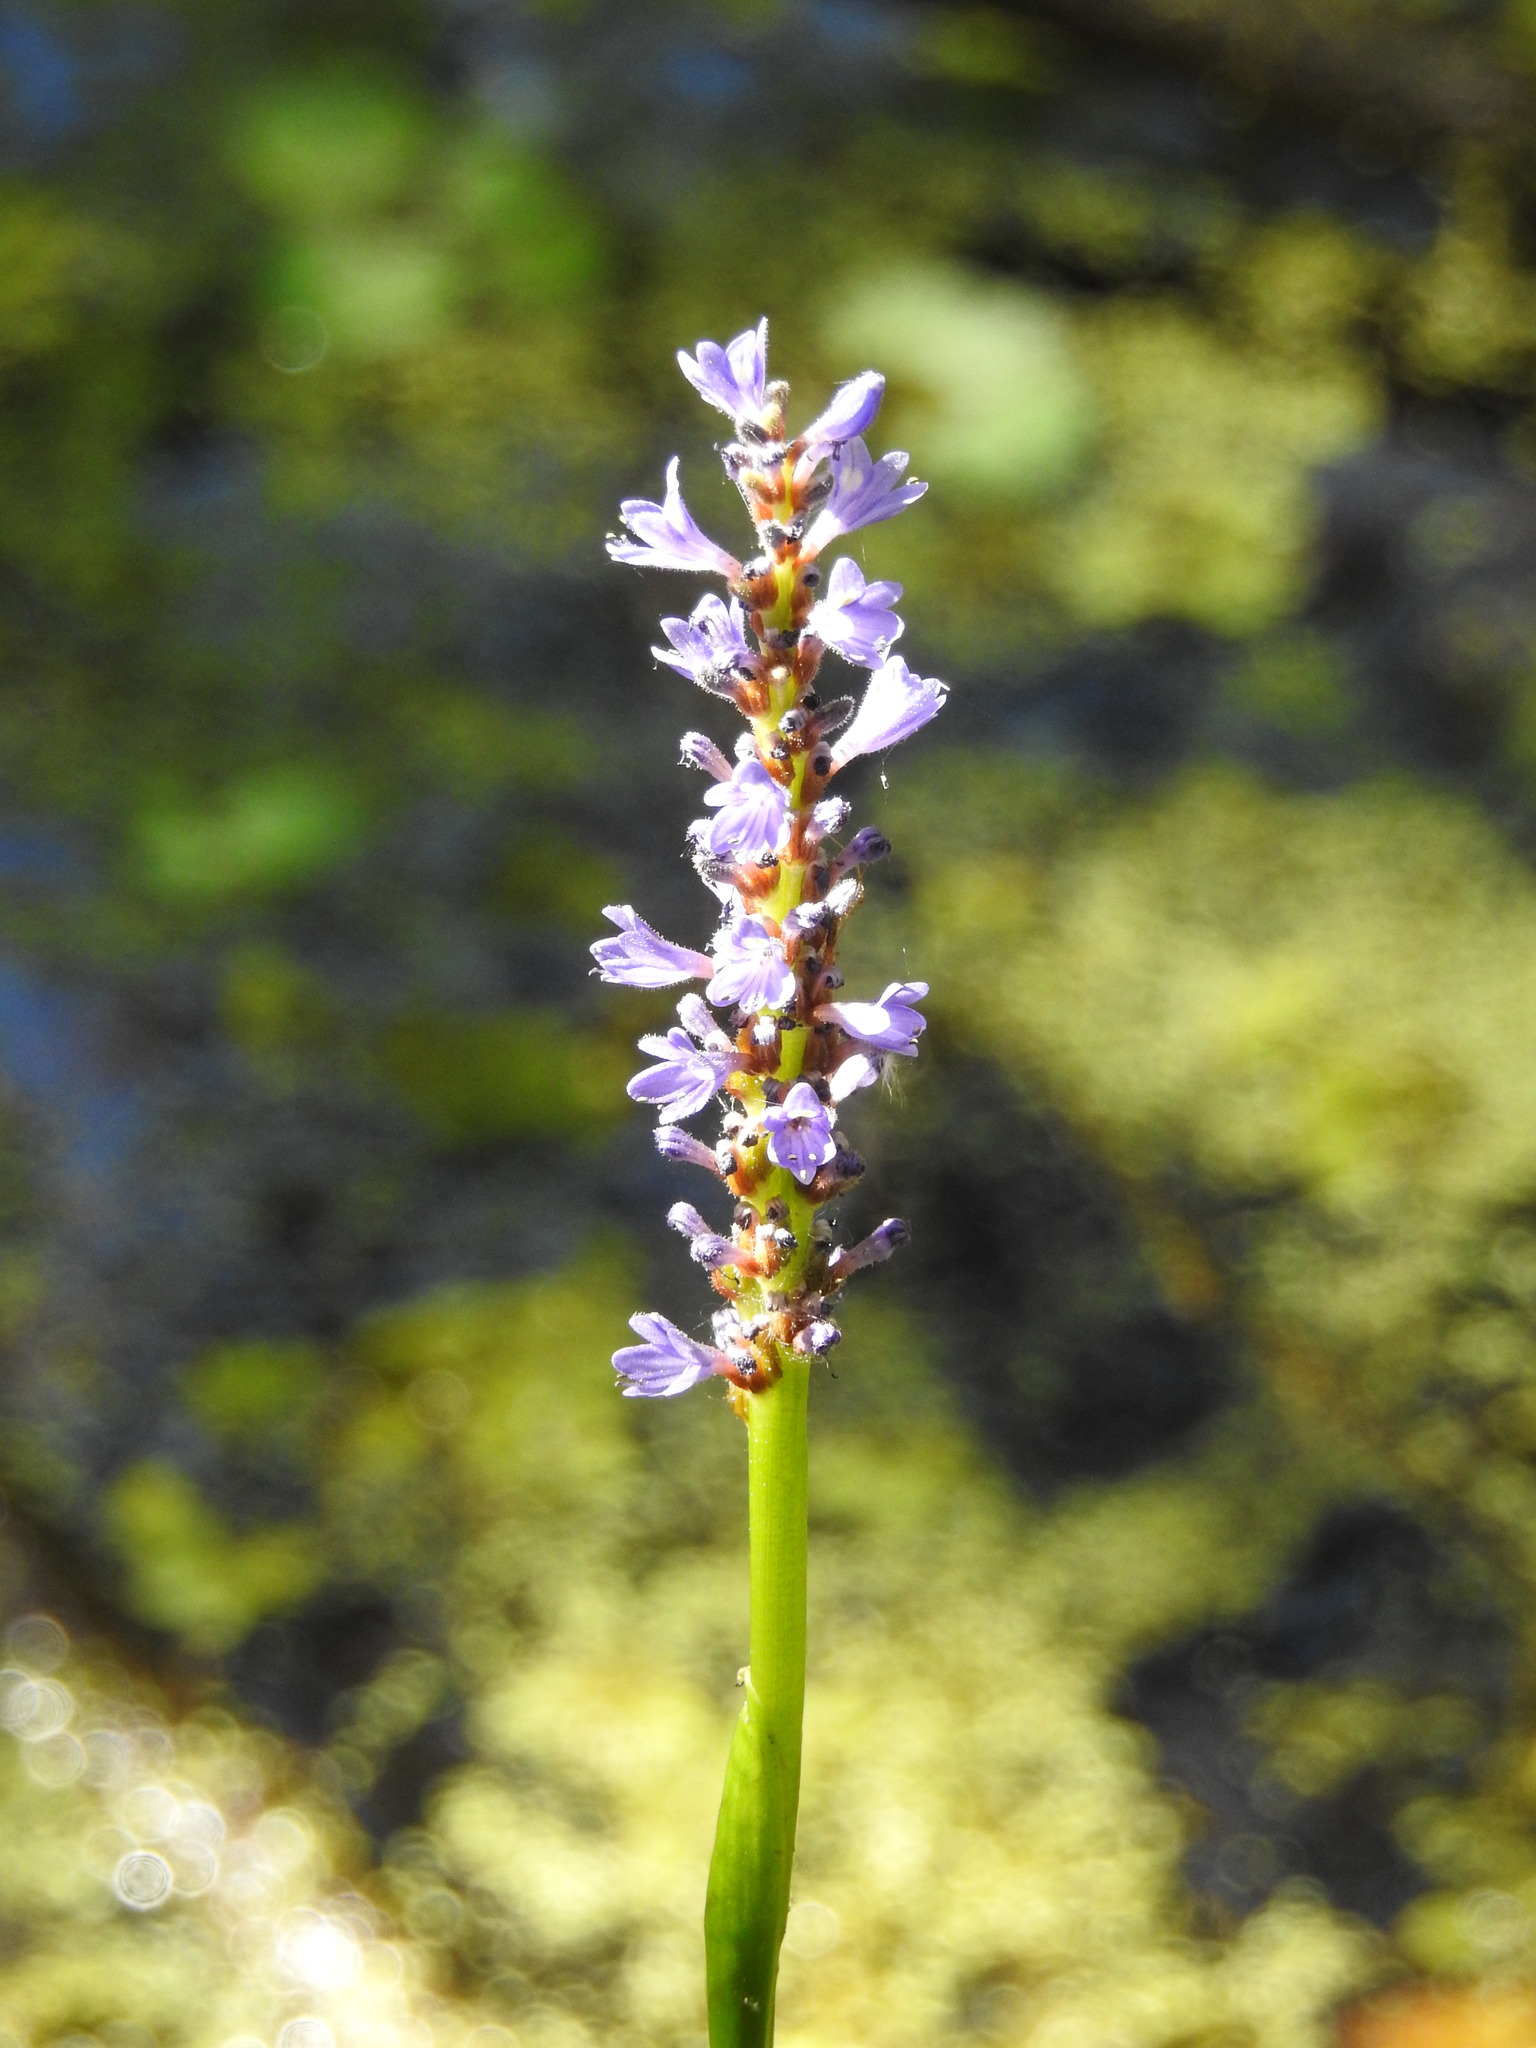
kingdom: Plantae
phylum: Tracheophyta
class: Liliopsida
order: Commelinales
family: Pontederiaceae
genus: Pontederia
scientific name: Pontederia cordata
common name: Pickerelweed
